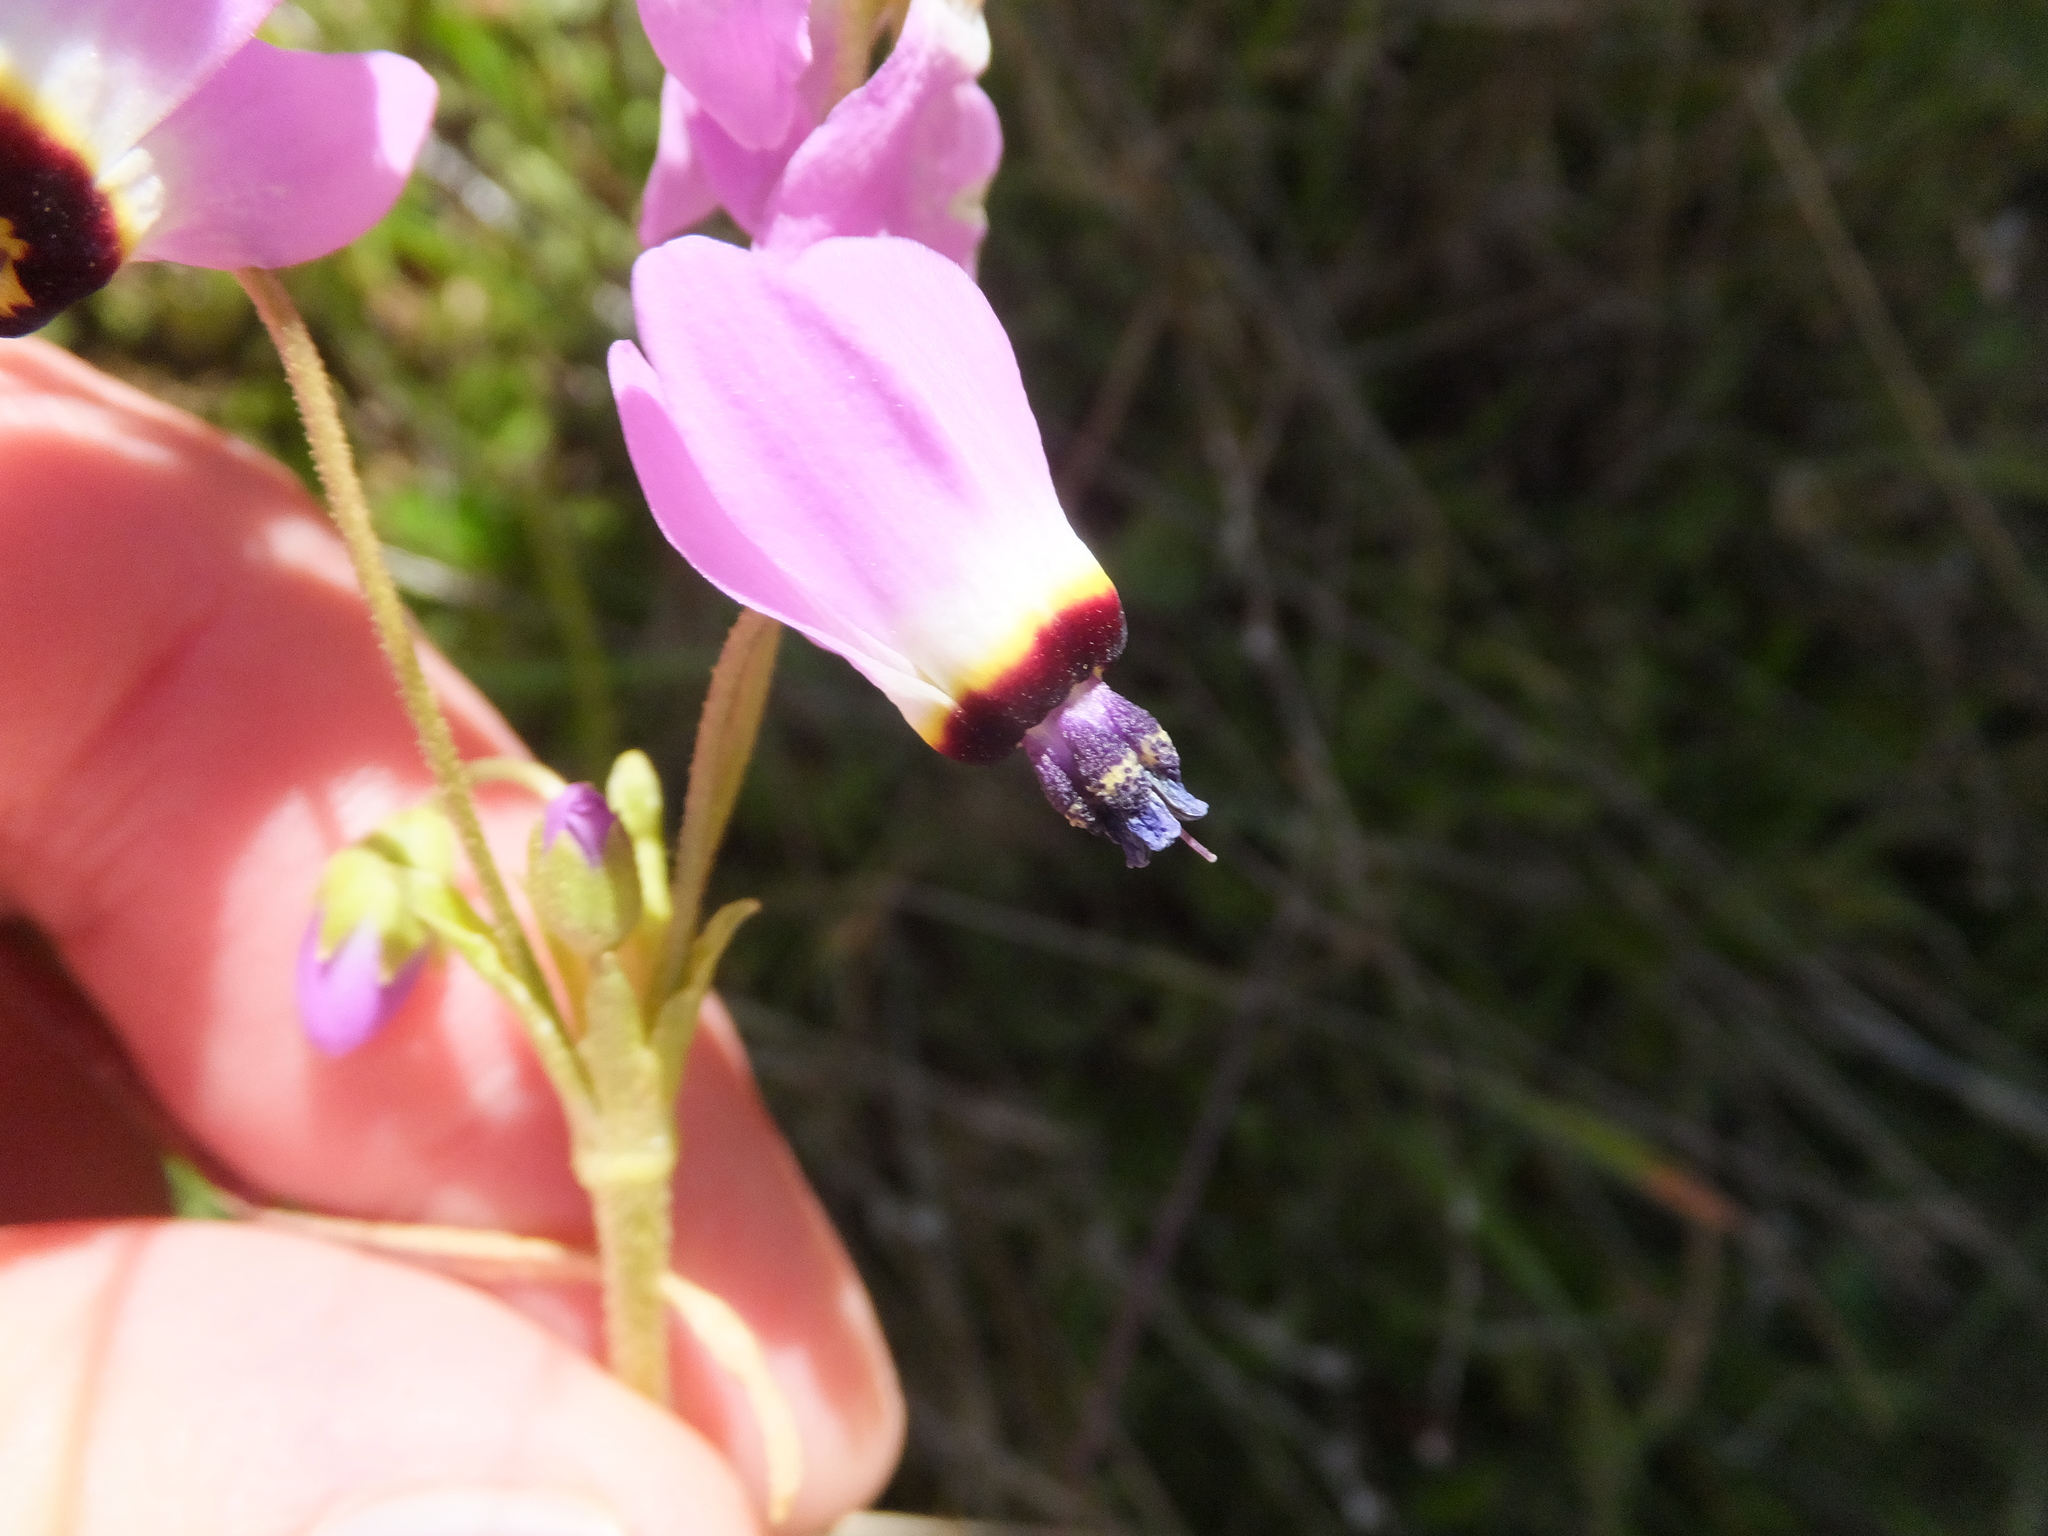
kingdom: Plantae
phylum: Tracheophyta
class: Magnoliopsida
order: Ericales
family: Primulaceae
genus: Dodecatheon
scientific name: Dodecatheon clevelandii
